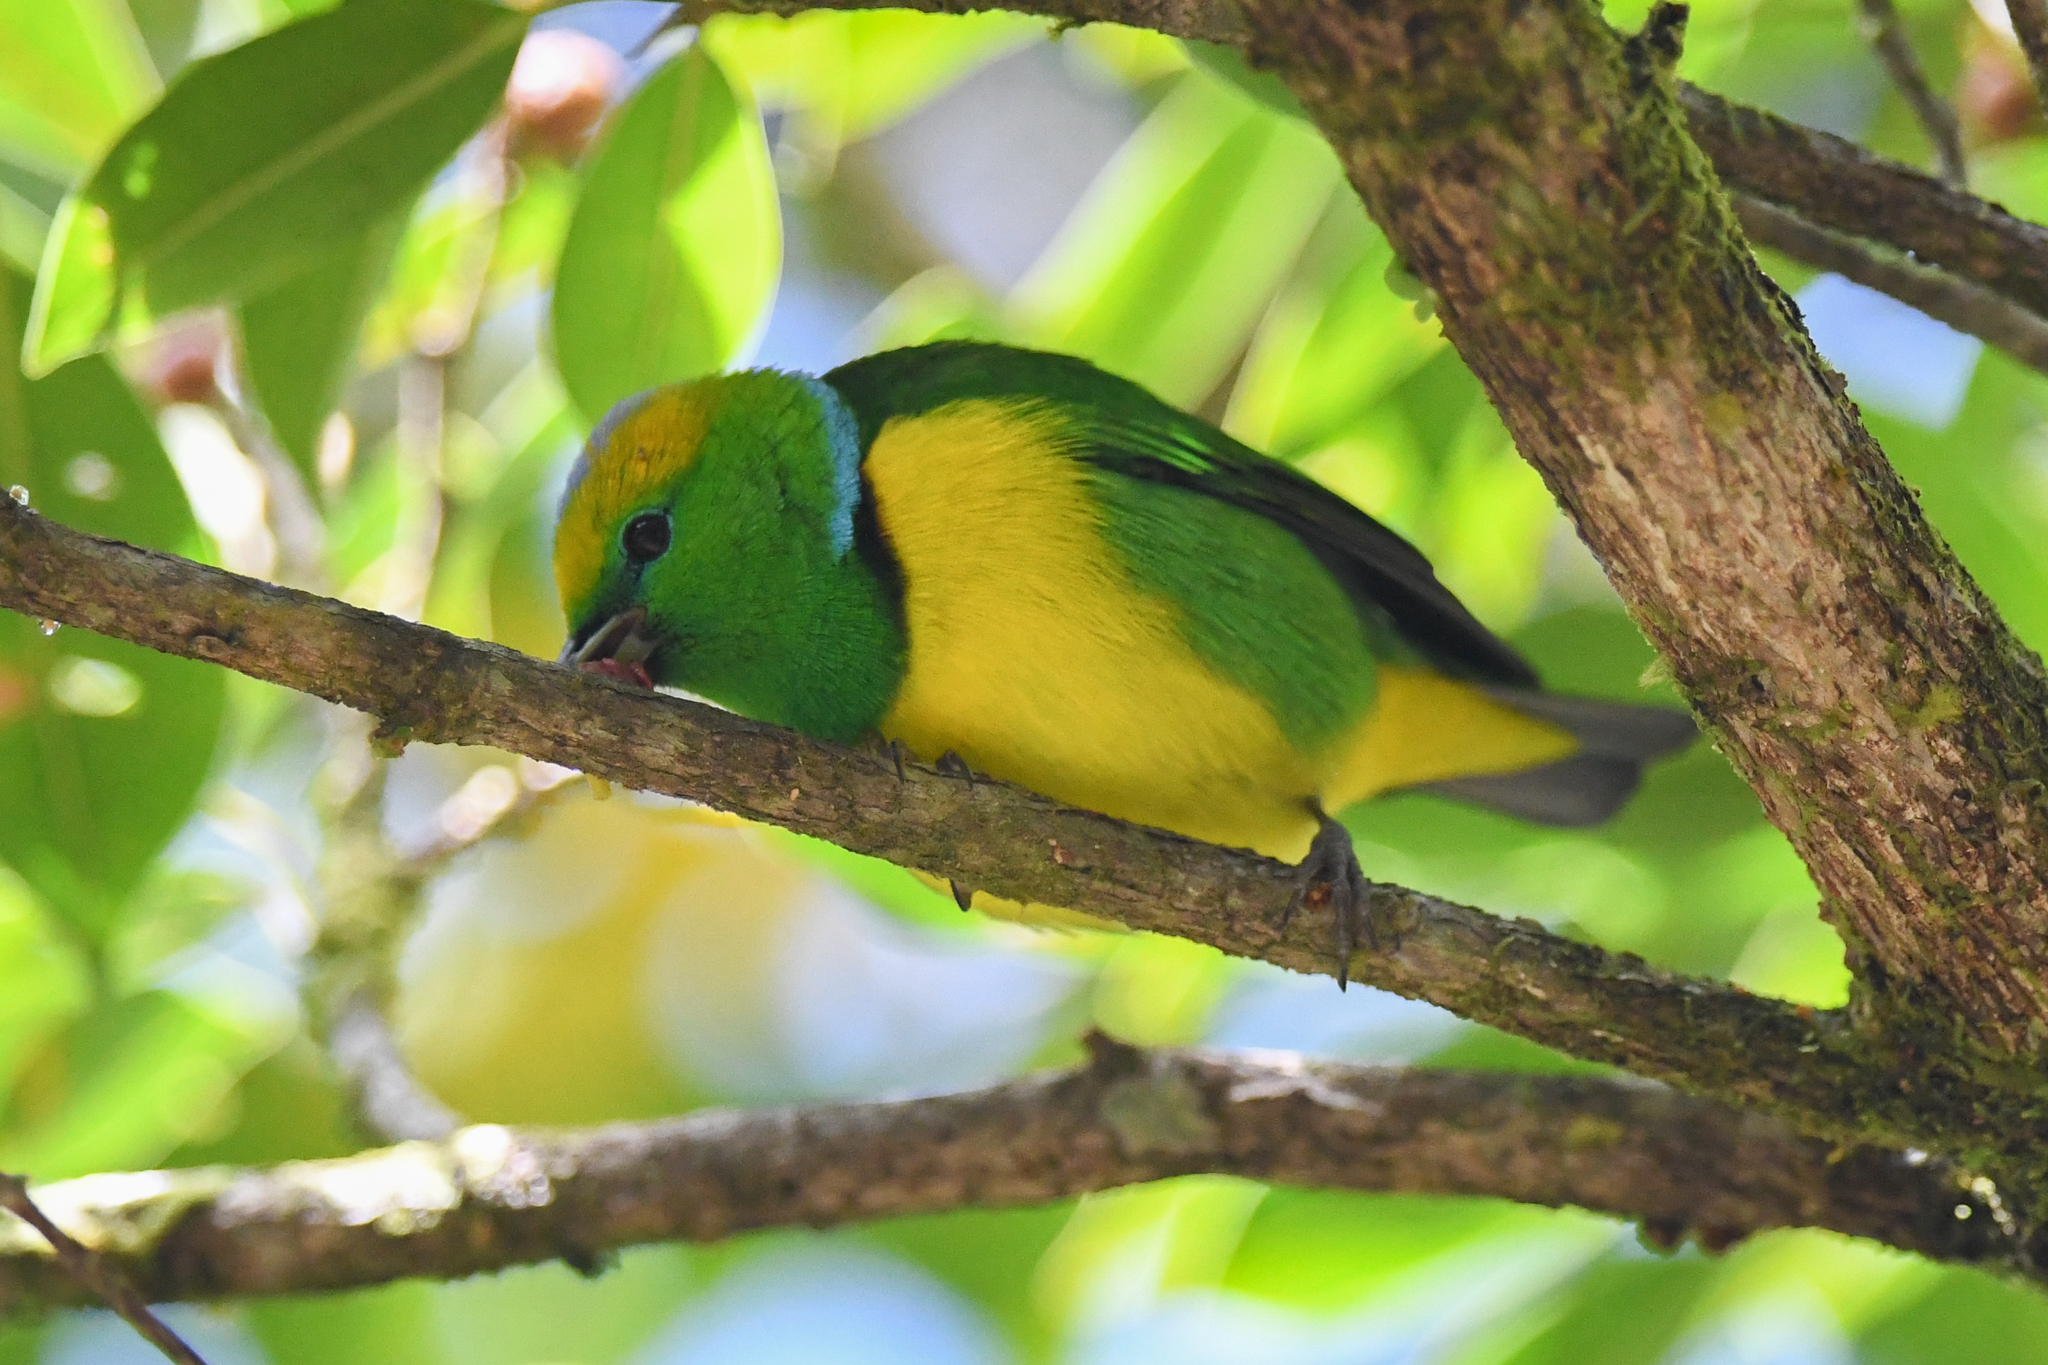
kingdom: Animalia
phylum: Chordata
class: Aves
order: Passeriformes
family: Fringillidae
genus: Chlorophonia
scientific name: Chlorophonia callophrys
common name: Golden-browed chlorophonia
